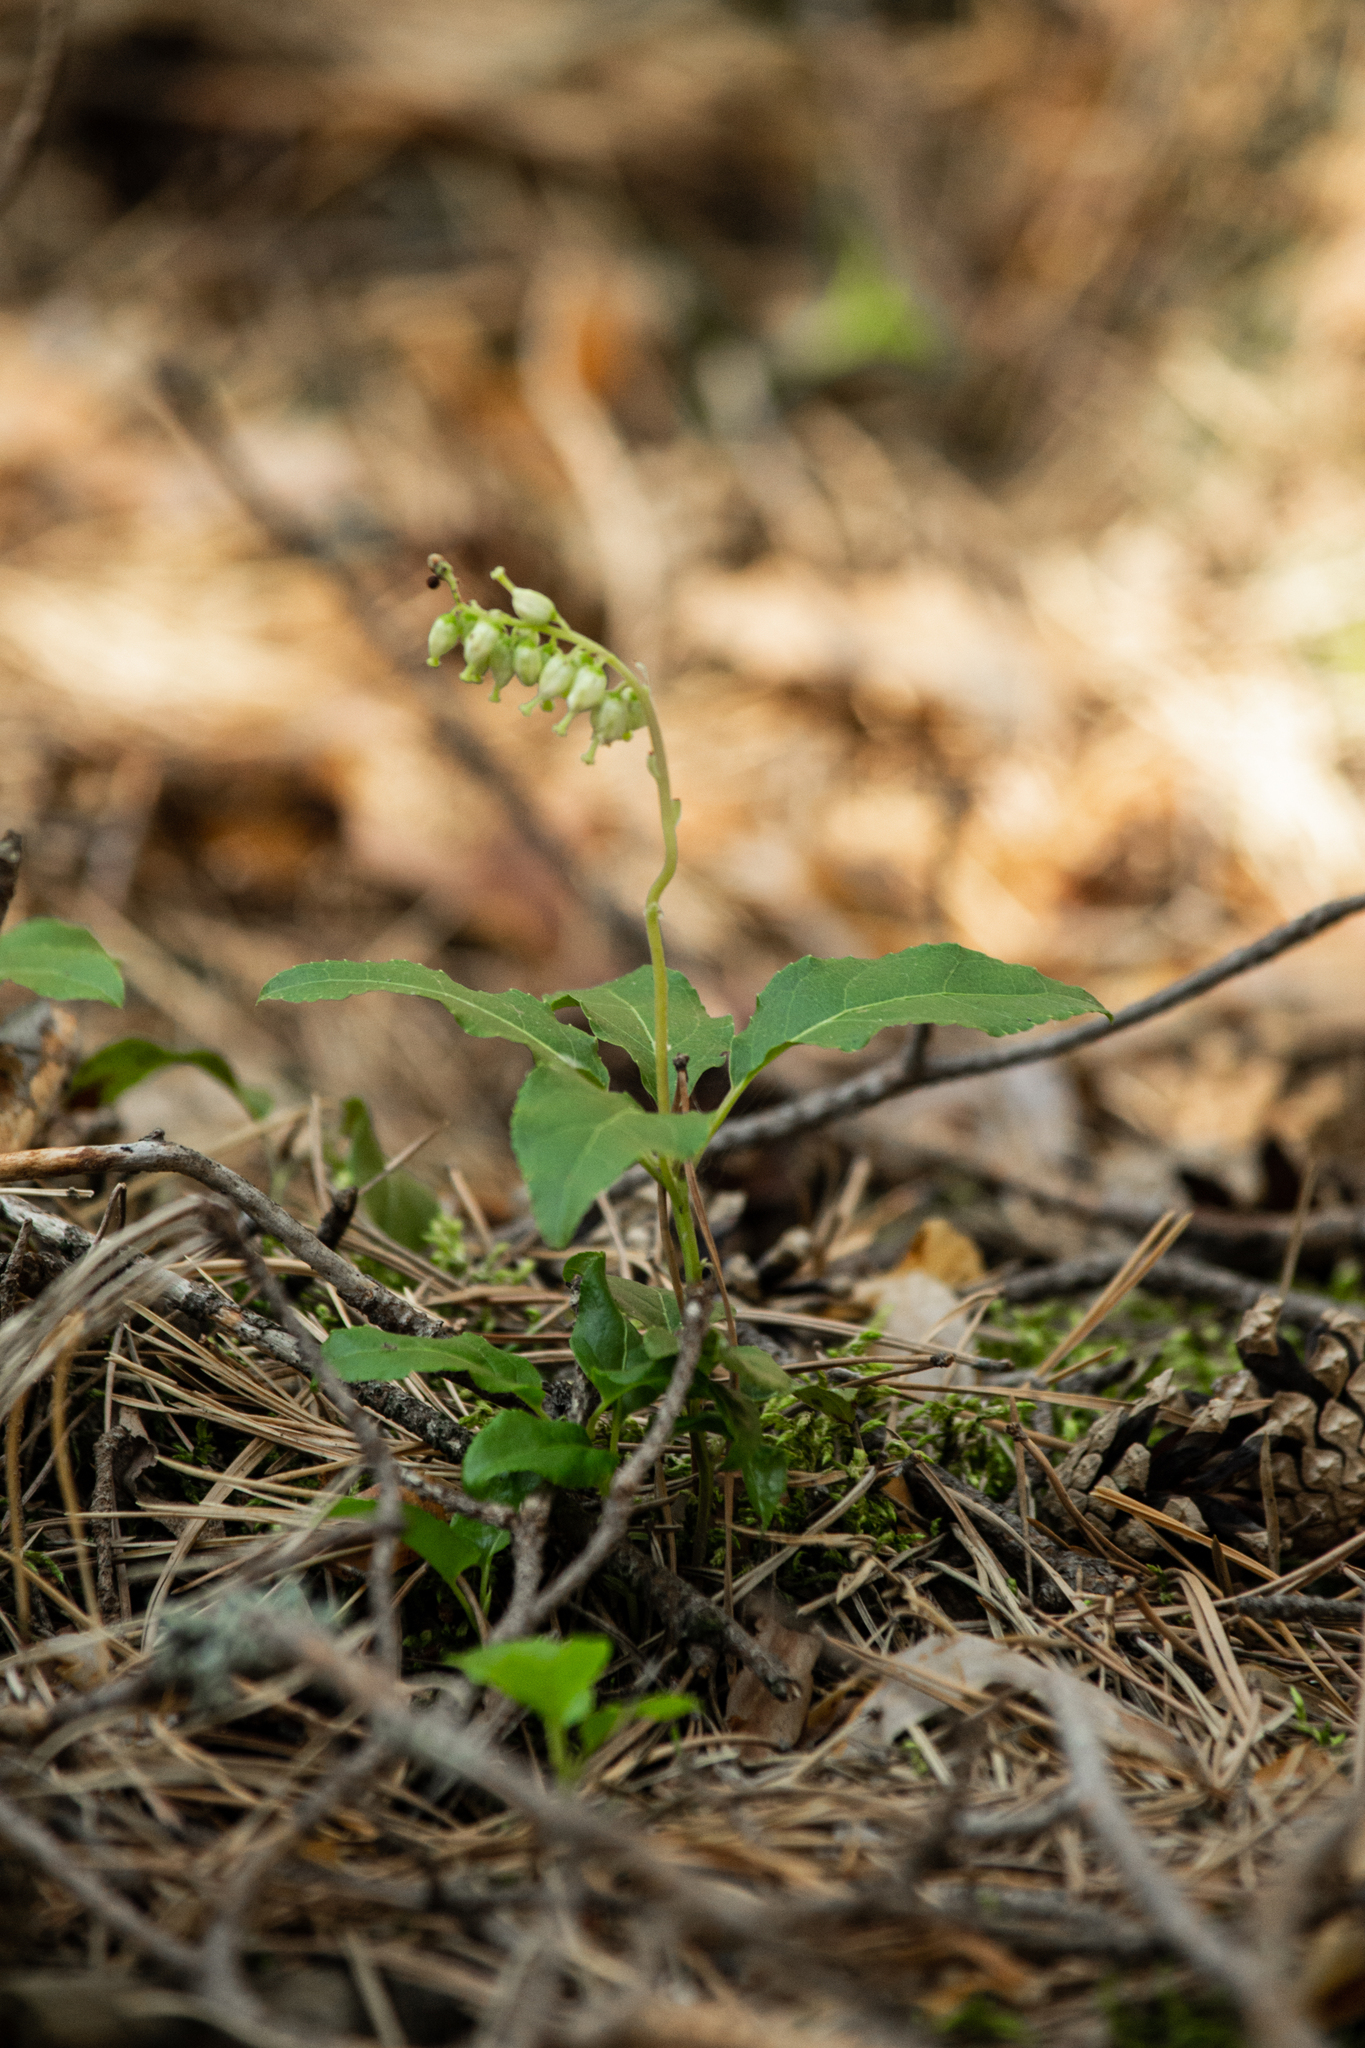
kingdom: Plantae
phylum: Tracheophyta
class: Magnoliopsida
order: Ericales
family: Ericaceae
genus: Orthilia
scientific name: Orthilia secunda
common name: One-sided orthilia
